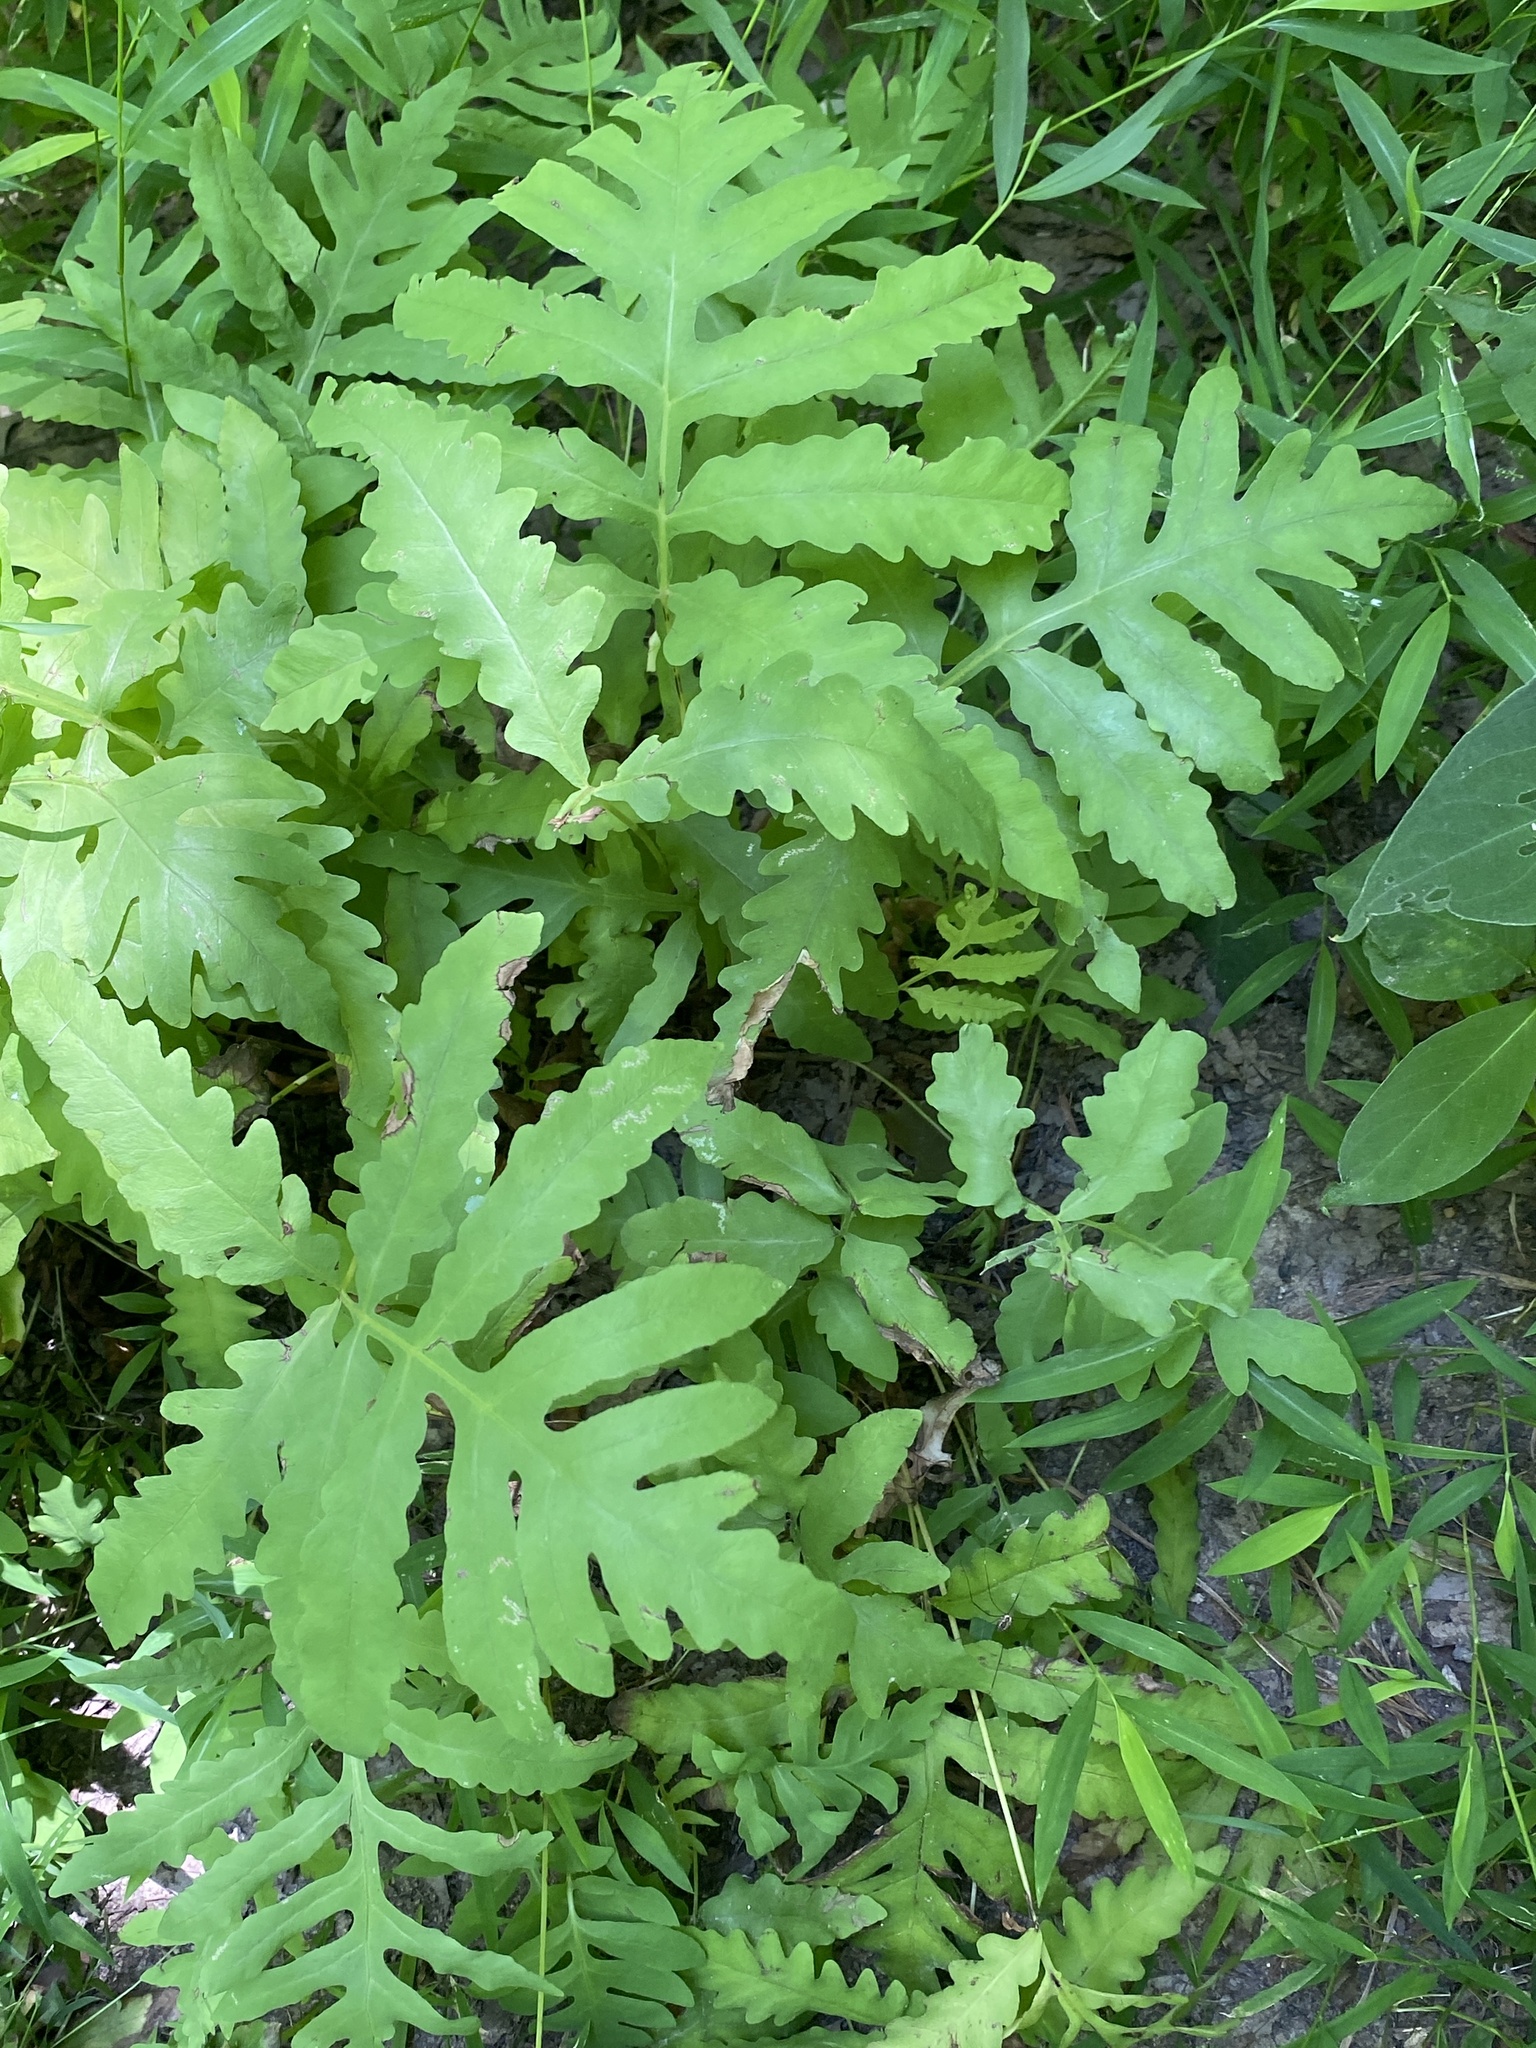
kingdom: Plantae
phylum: Tracheophyta
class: Polypodiopsida
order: Polypodiales
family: Onocleaceae
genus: Onoclea
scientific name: Onoclea sensibilis
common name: Sensitive fern
